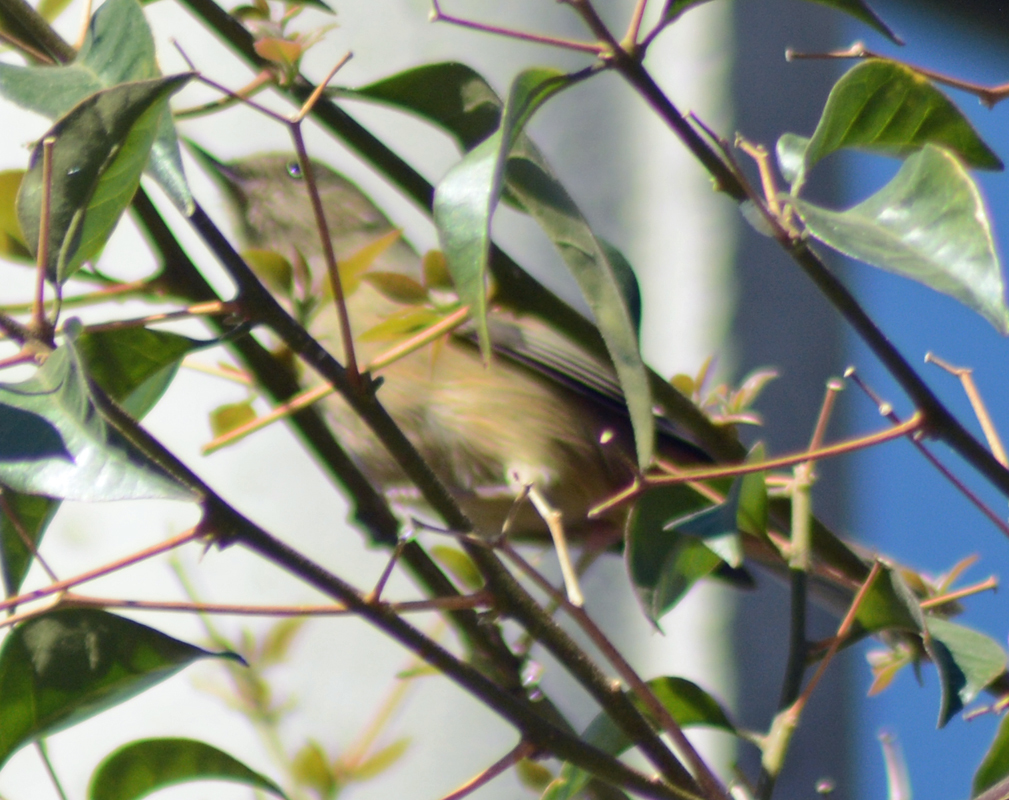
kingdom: Animalia
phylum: Chordata
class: Aves
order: Passeriformes
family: Thraupidae
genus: Diglossa
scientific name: Diglossa baritula
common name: Cinnamon-bellied flowerpiercer
